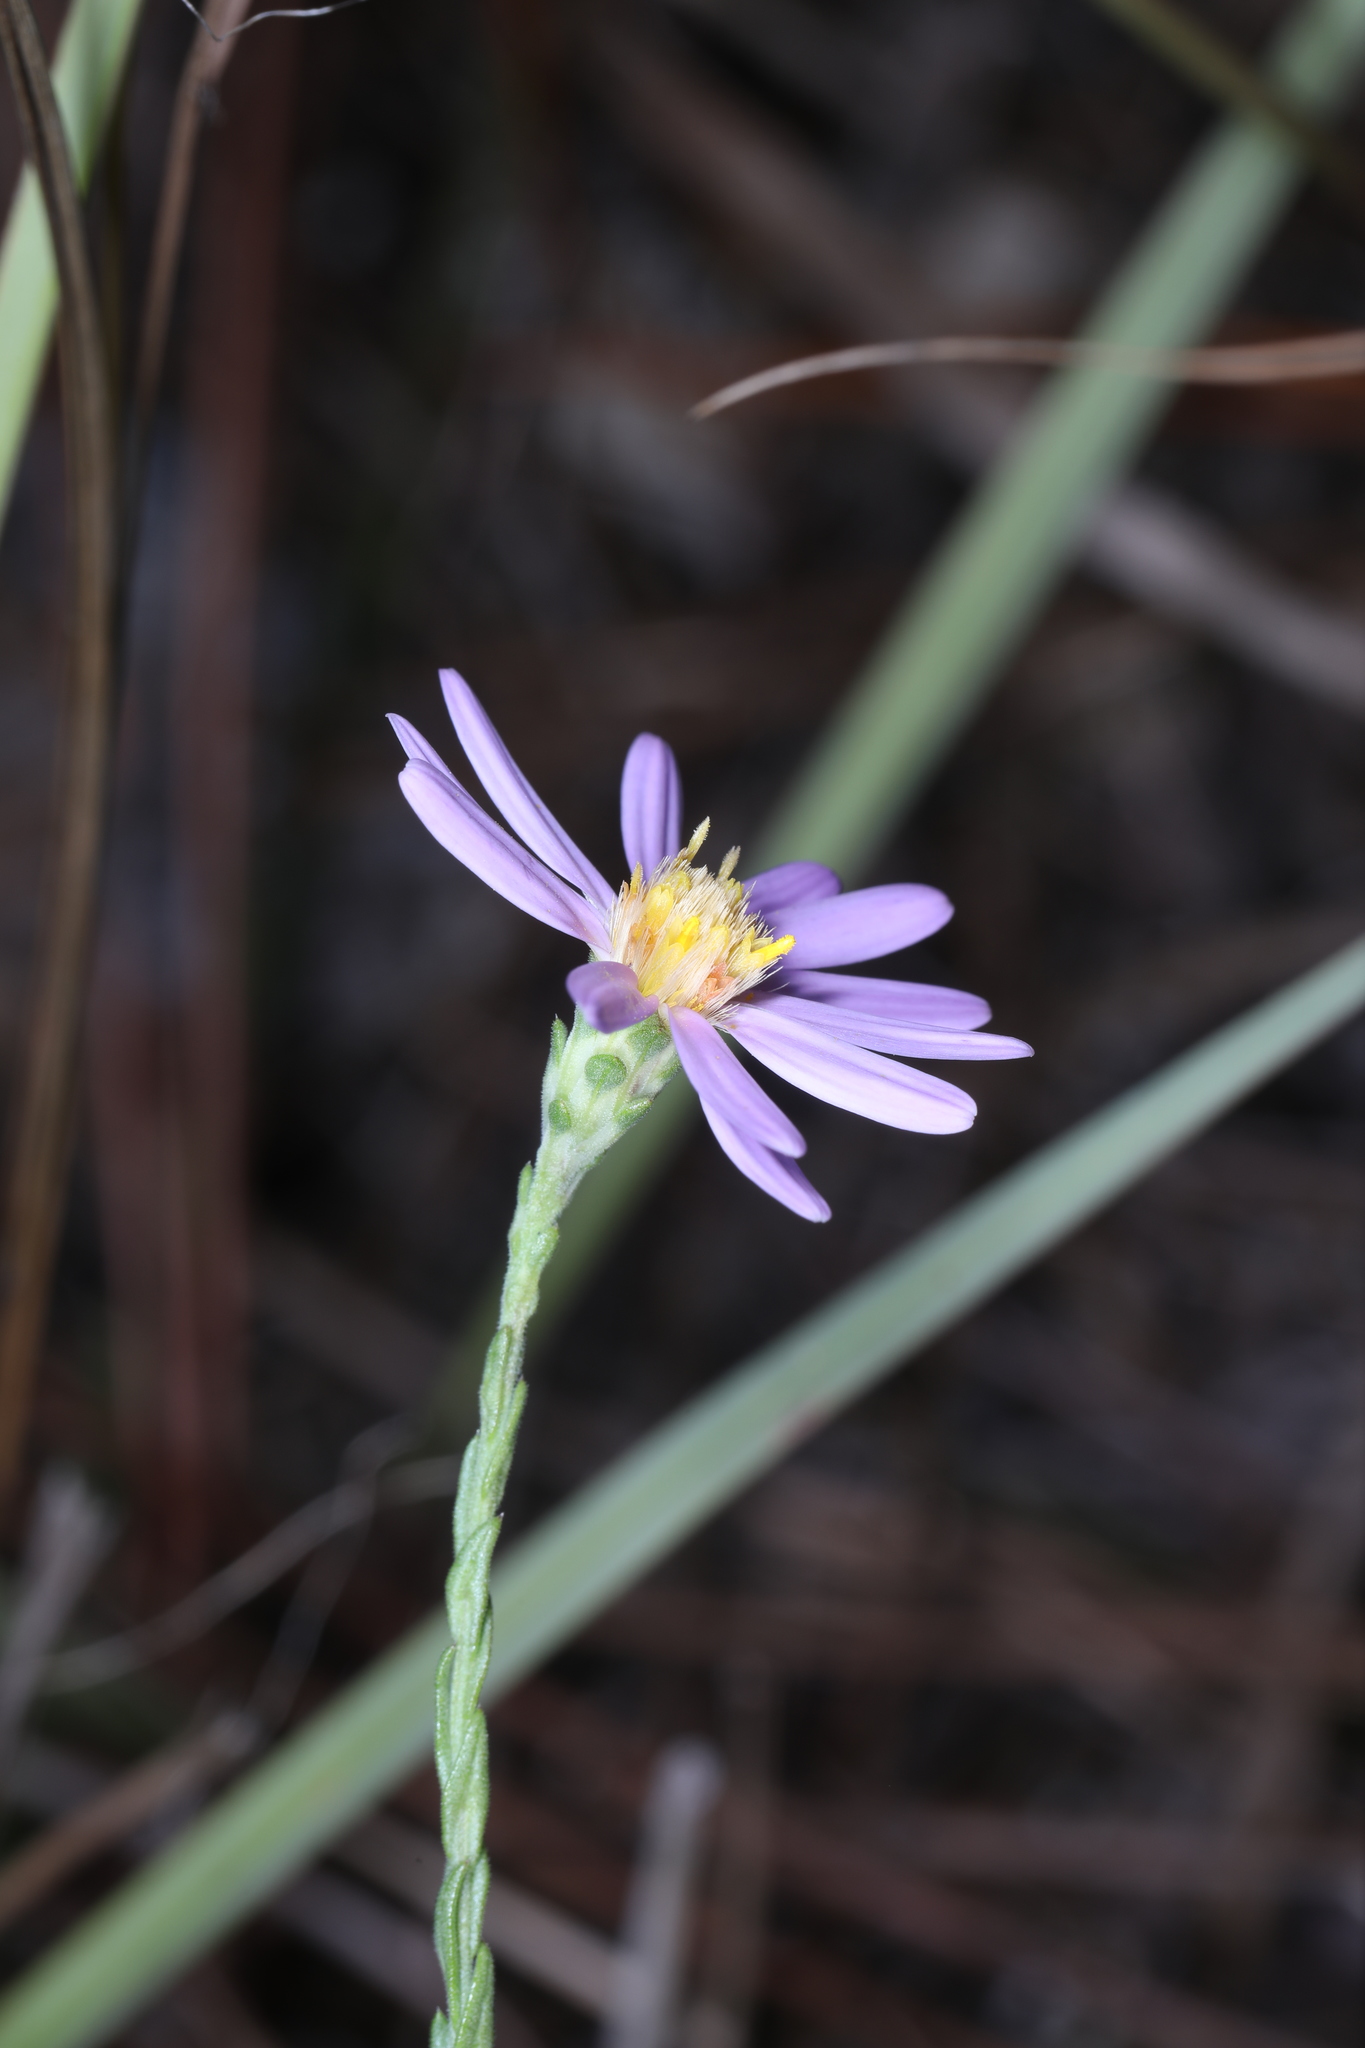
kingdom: Plantae
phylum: Tracheophyta
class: Magnoliopsida
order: Asterales
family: Asteraceae
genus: Symphyotrichum
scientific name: Symphyotrichum adnatum
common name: Scale-leaf aster
